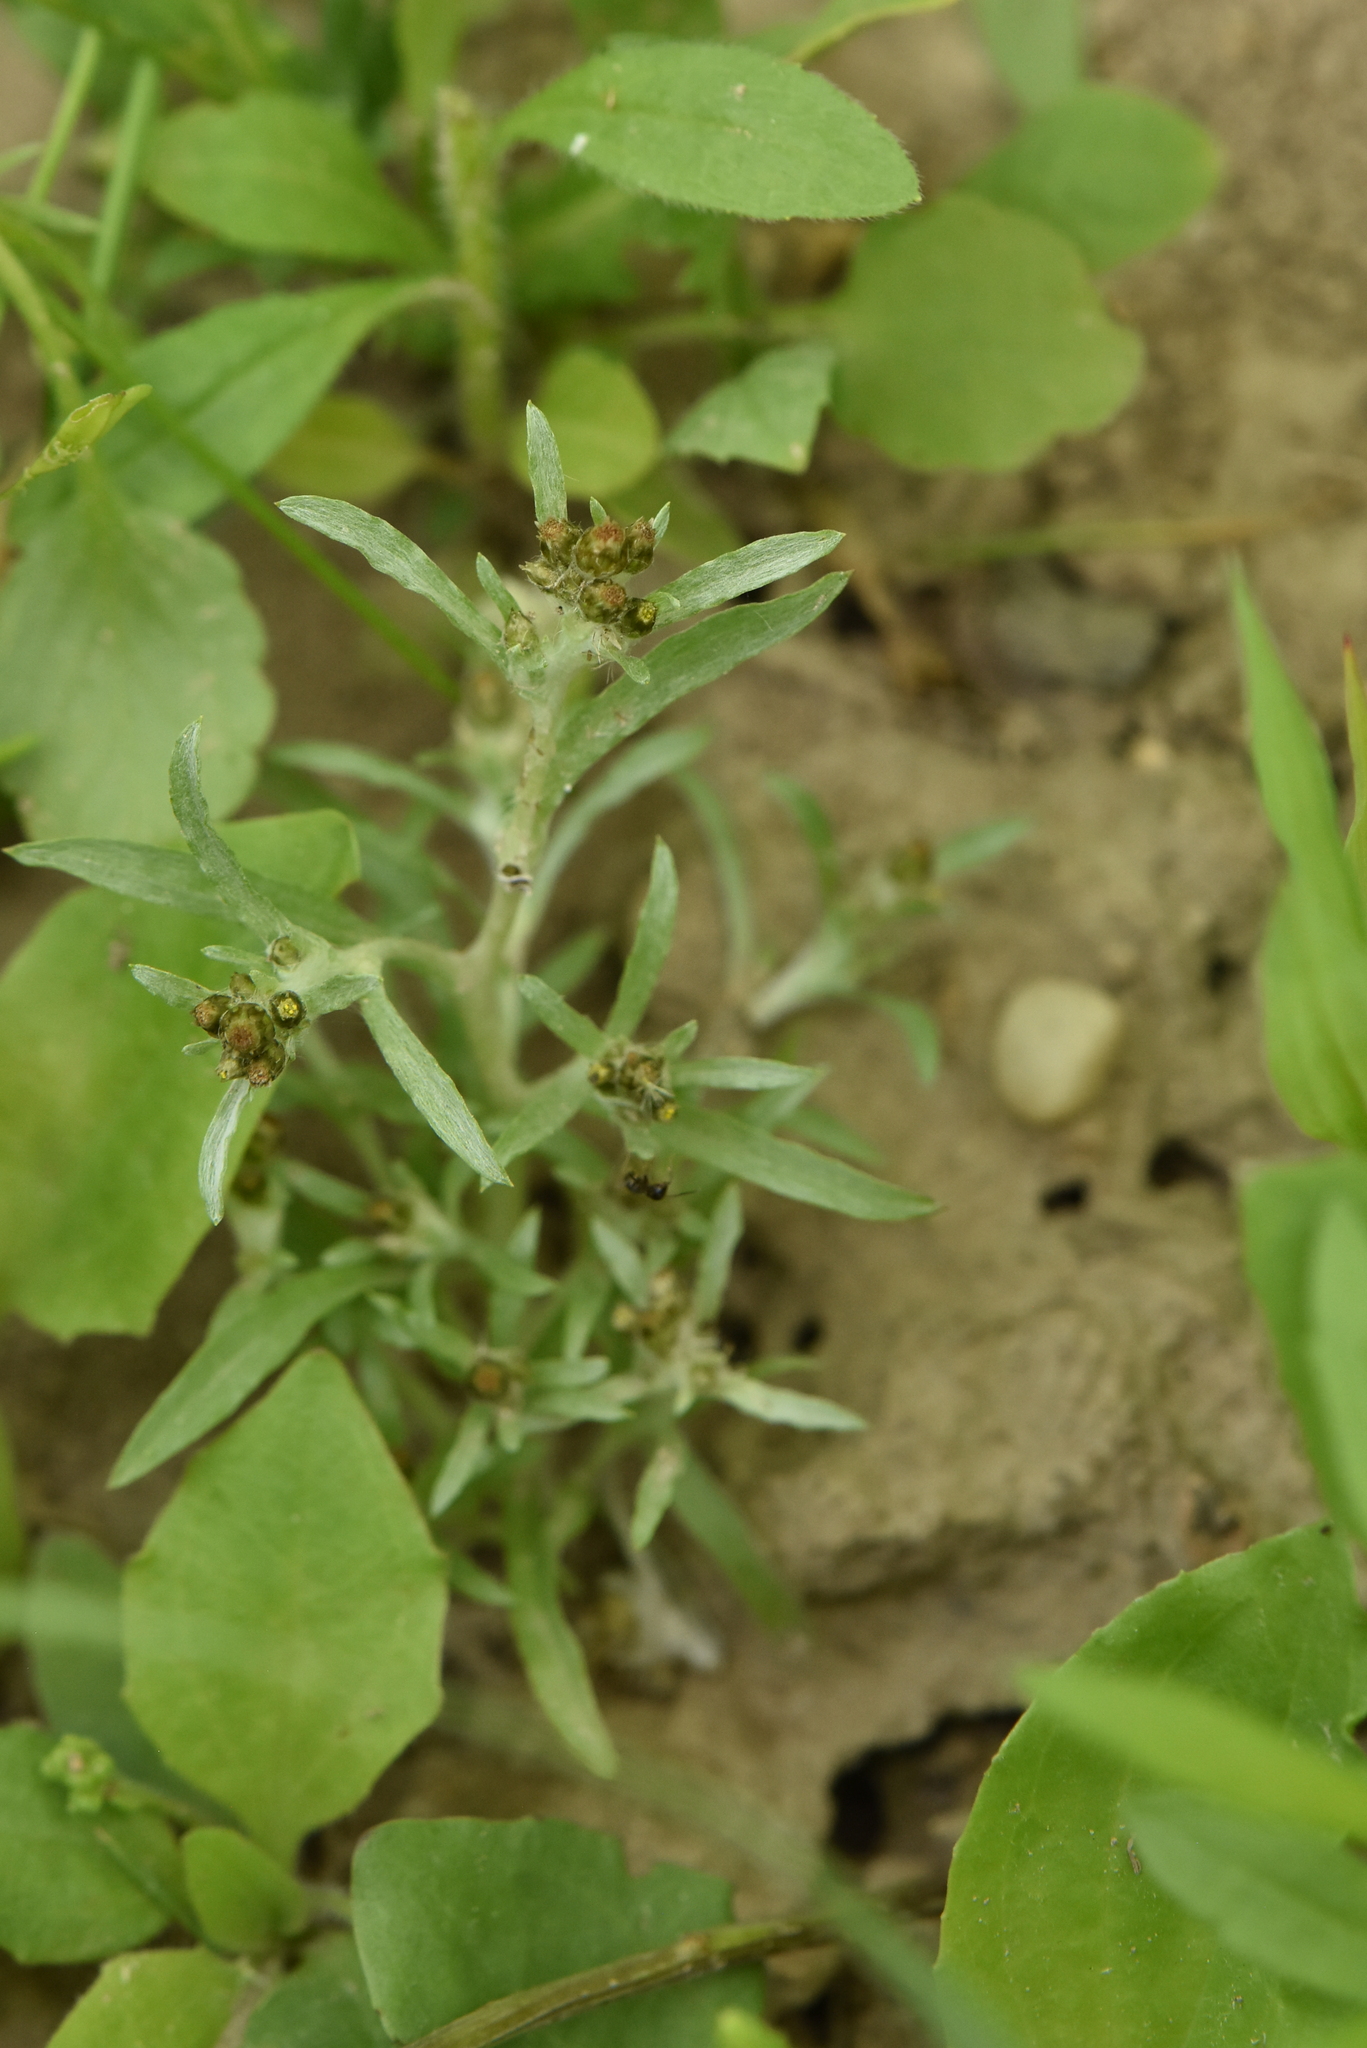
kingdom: Plantae
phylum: Tracheophyta
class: Magnoliopsida
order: Asterales
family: Asteraceae
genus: Gnaphalium
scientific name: Gnaphalium uliginosum
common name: Marsh cudweed
